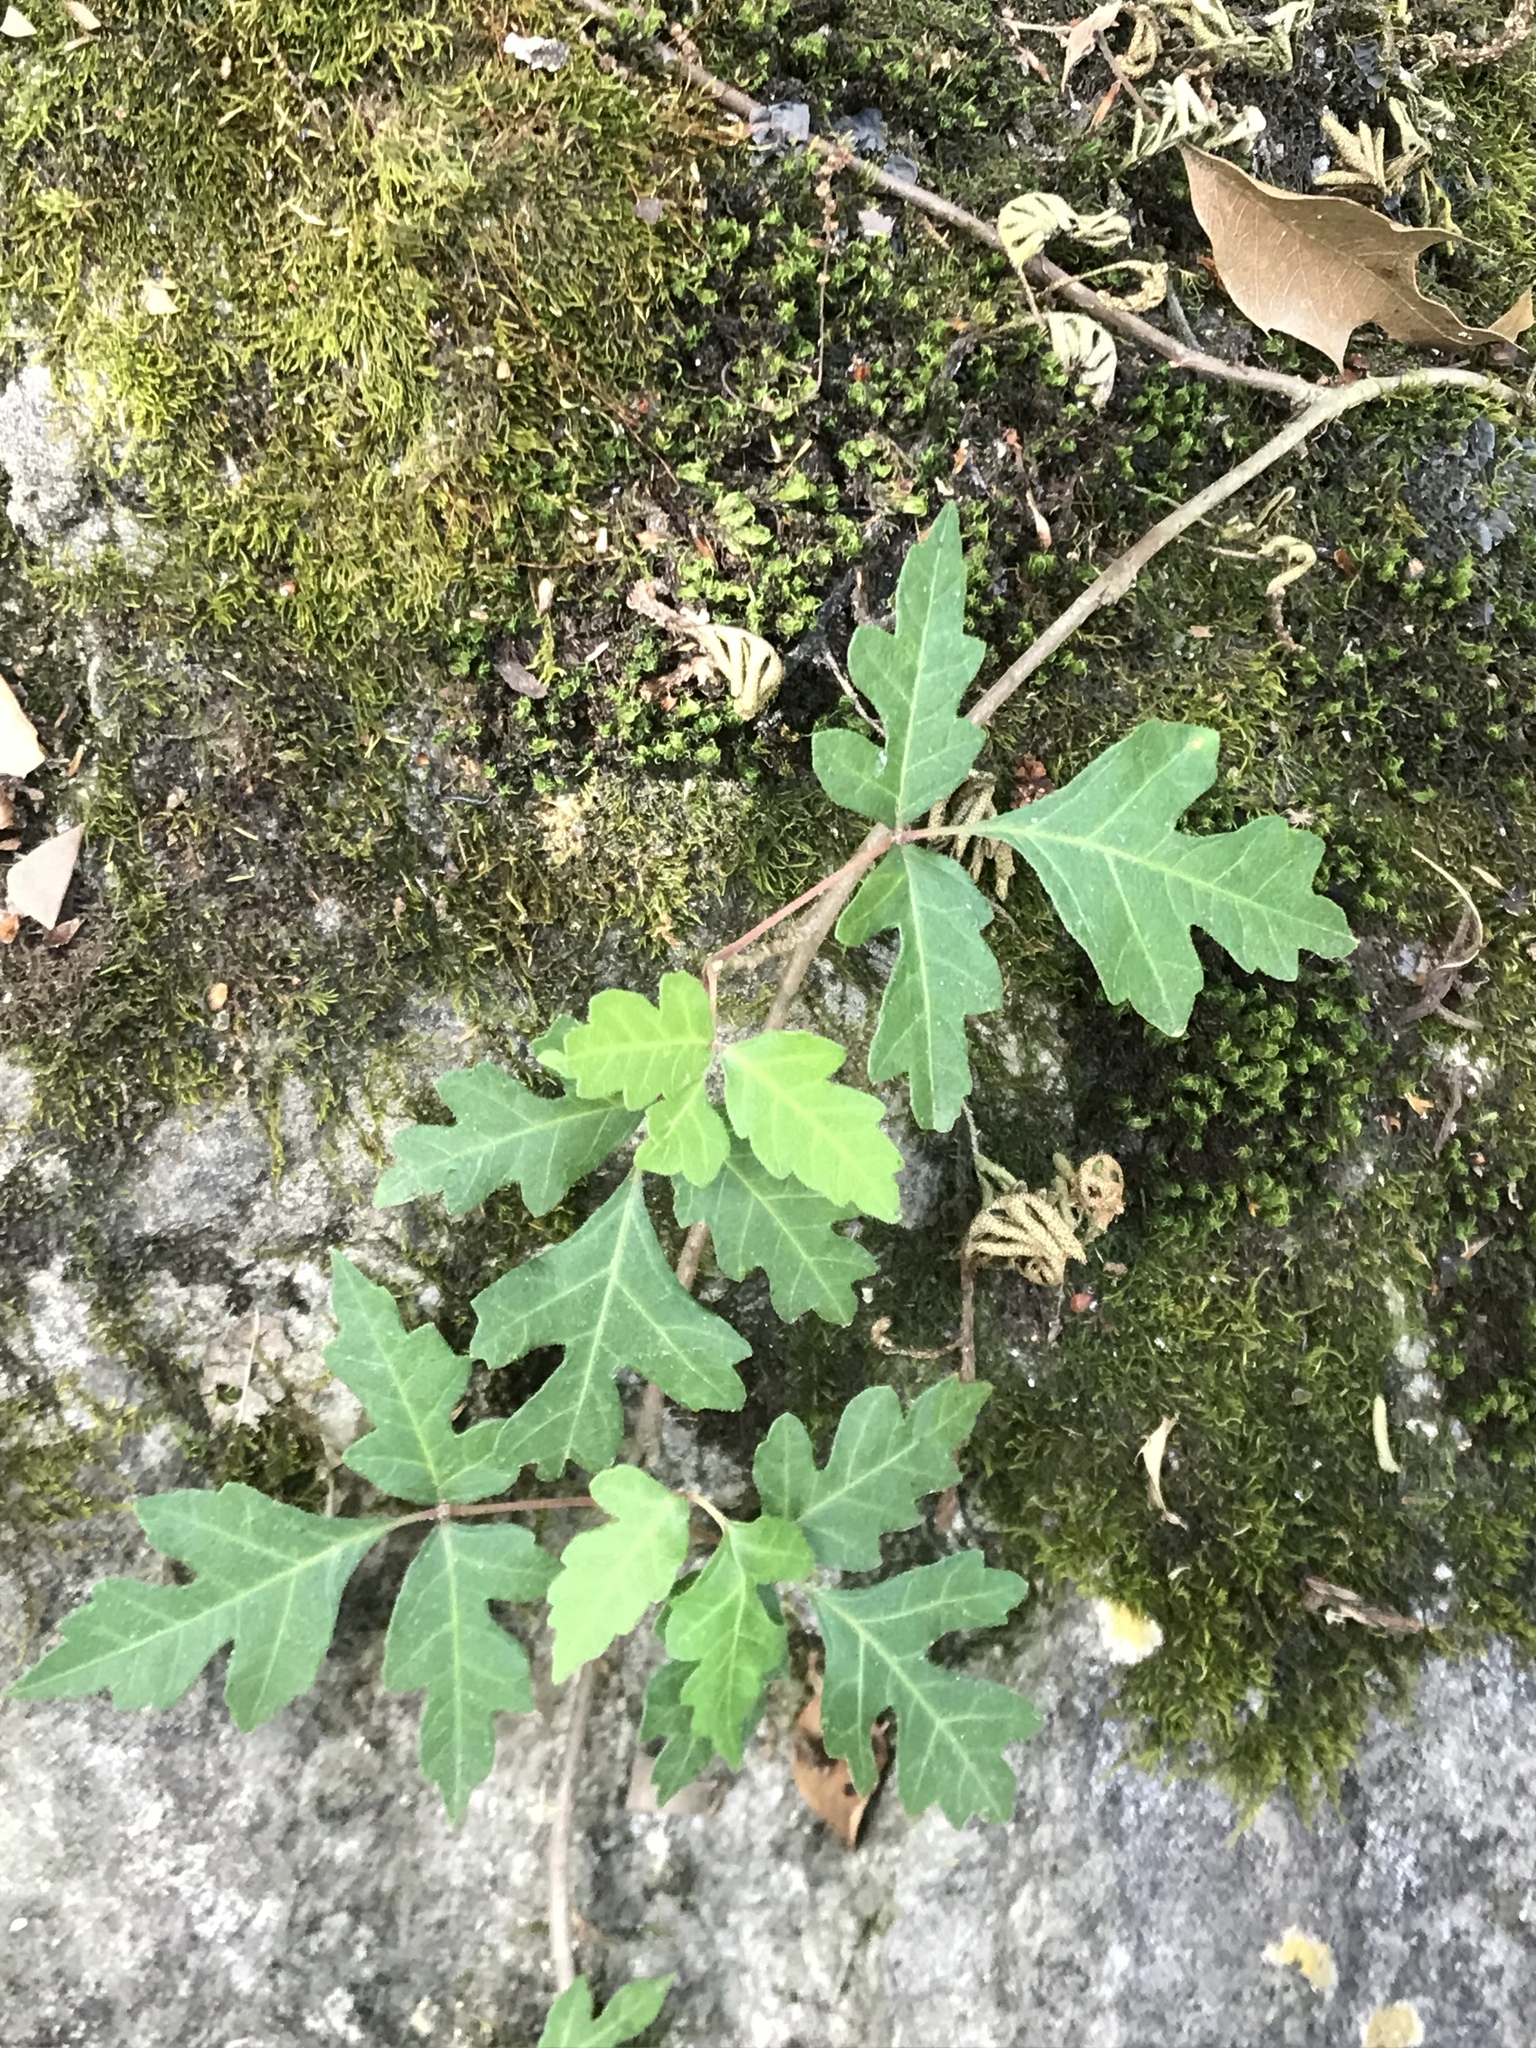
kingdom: Plantae
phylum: Tracheophyta
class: Magnoliopsida
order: Sapindales
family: Anacardiaceae
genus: Toxicodendron
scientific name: Toxicodendron radicans
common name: Poison ivy
